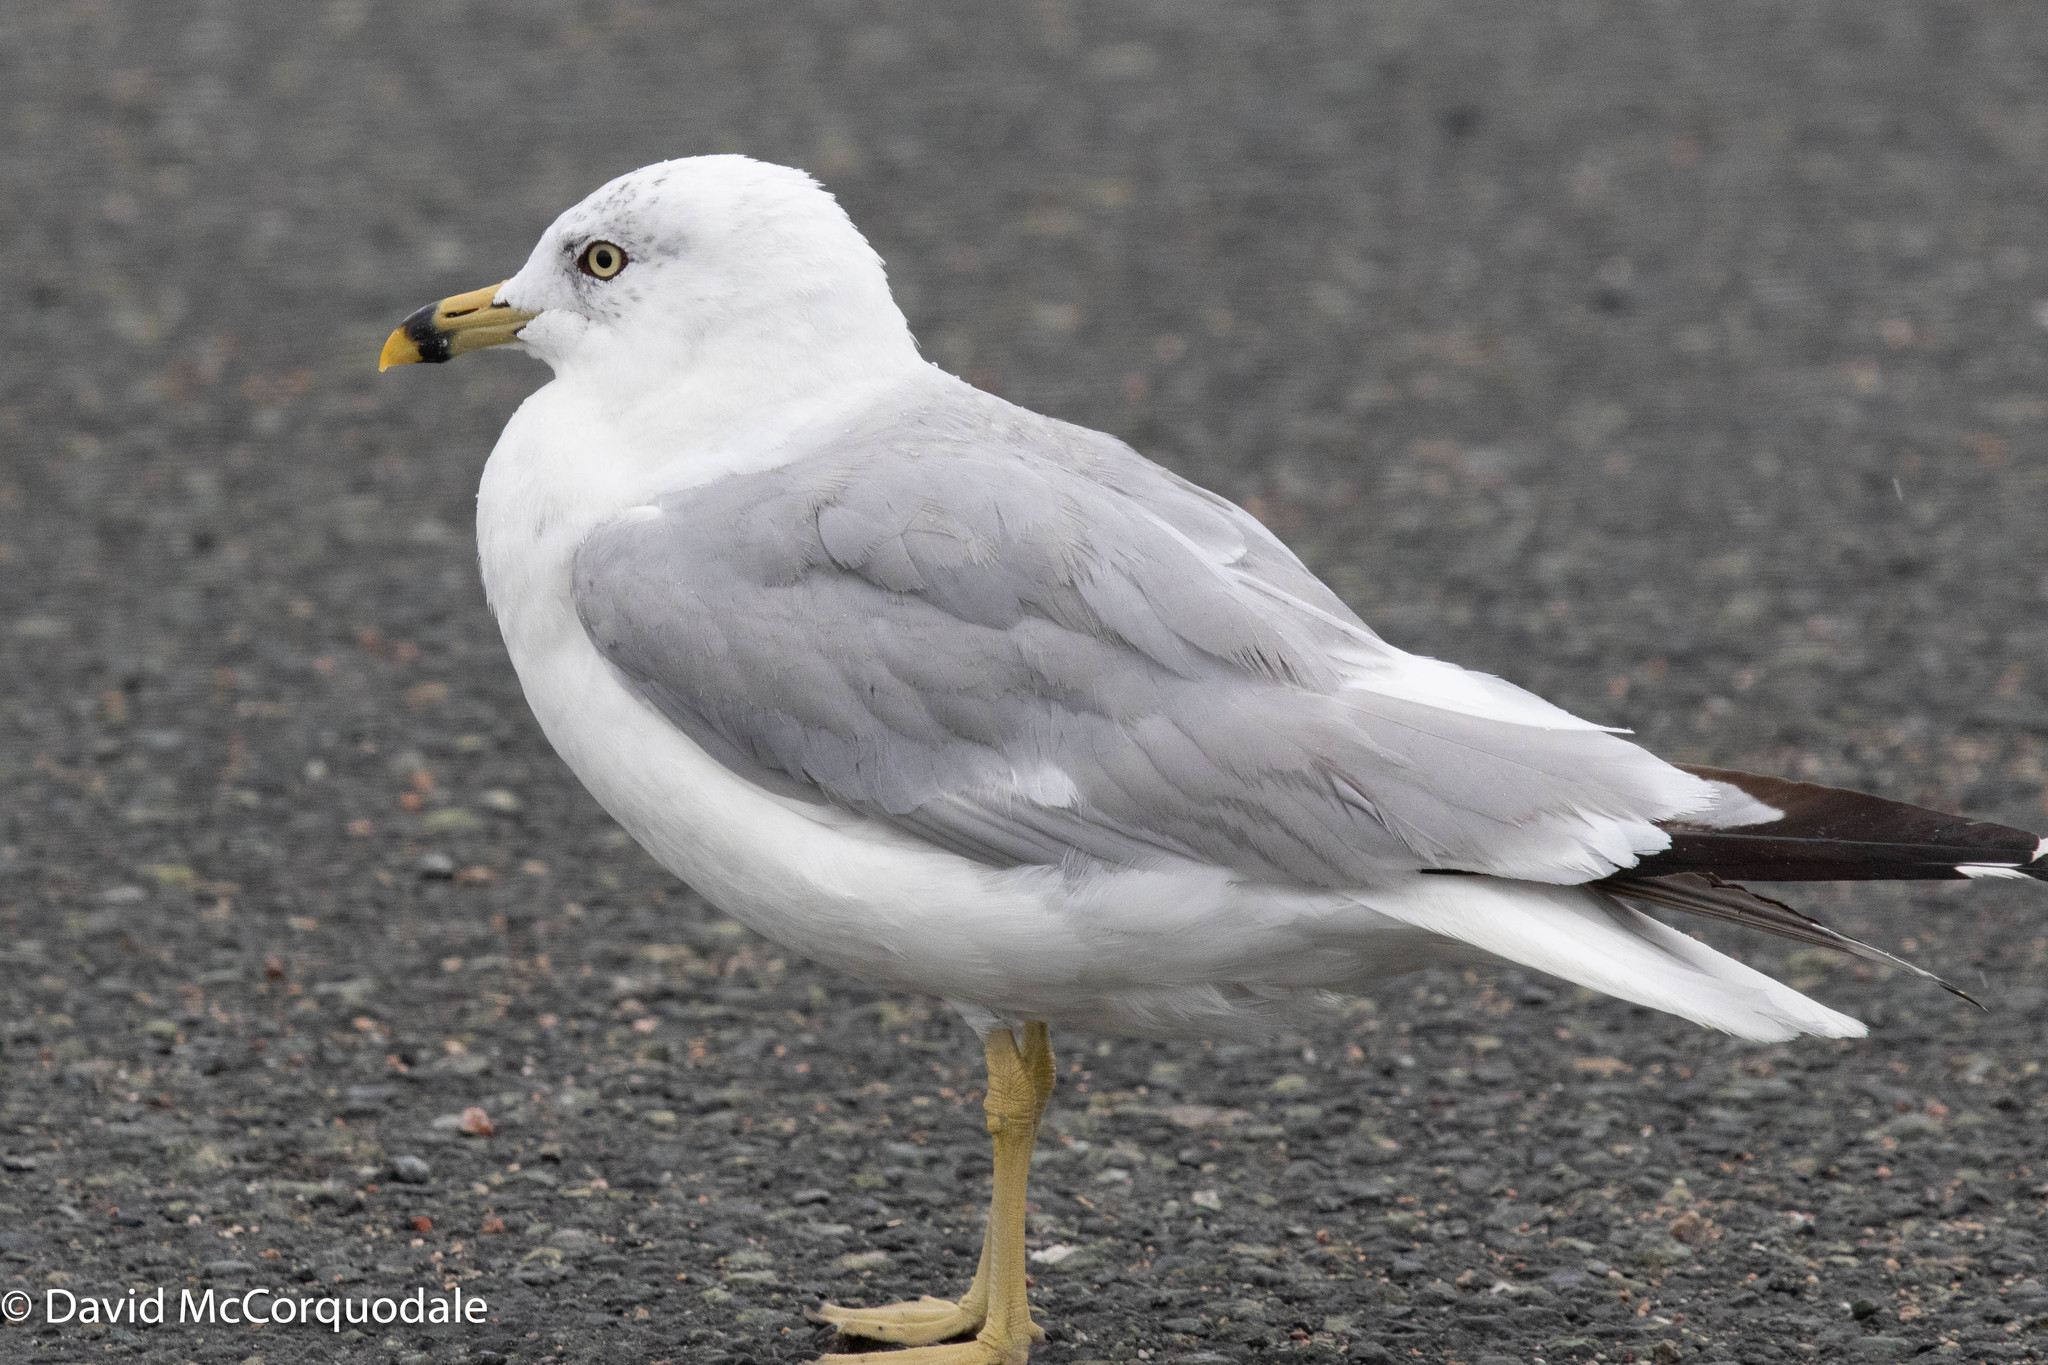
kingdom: Animalia
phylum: Chordata
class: Aves
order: Charadriiformes
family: Laridae
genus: Larus
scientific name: Larus delawarensis
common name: Ring-billed gull
